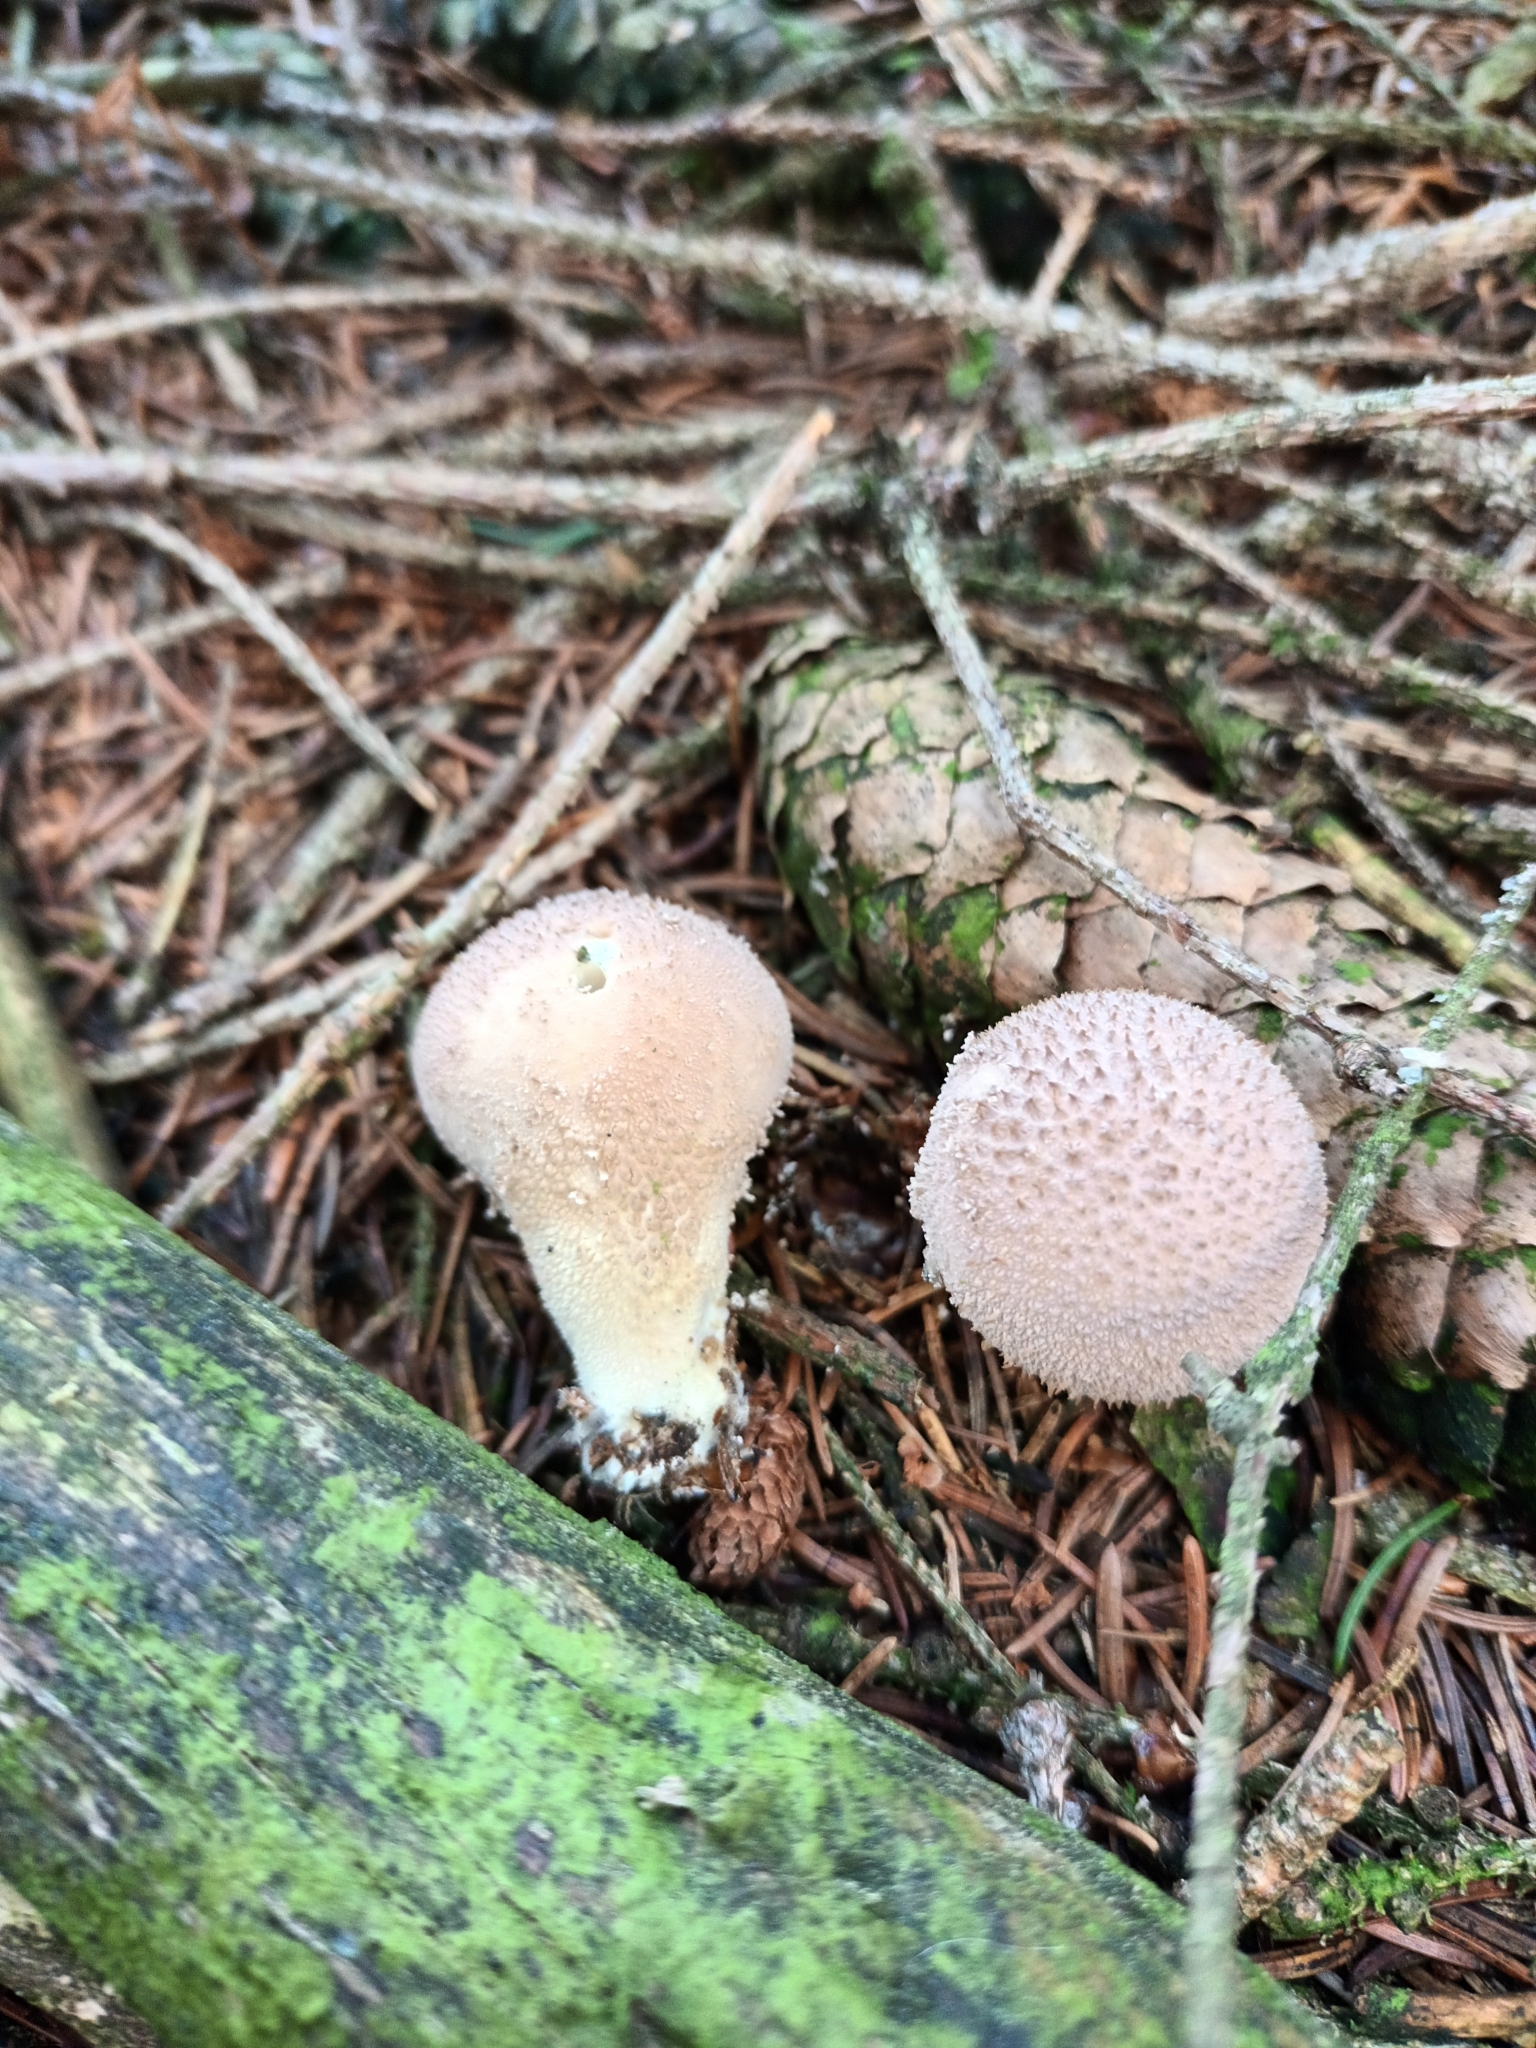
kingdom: Fungi
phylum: Basidiomycota
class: Agaricomycetes
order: Agaricales
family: Lycoperdaceae
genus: Lycoperdon
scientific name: Lycoperdon perlatum
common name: Common puffball
